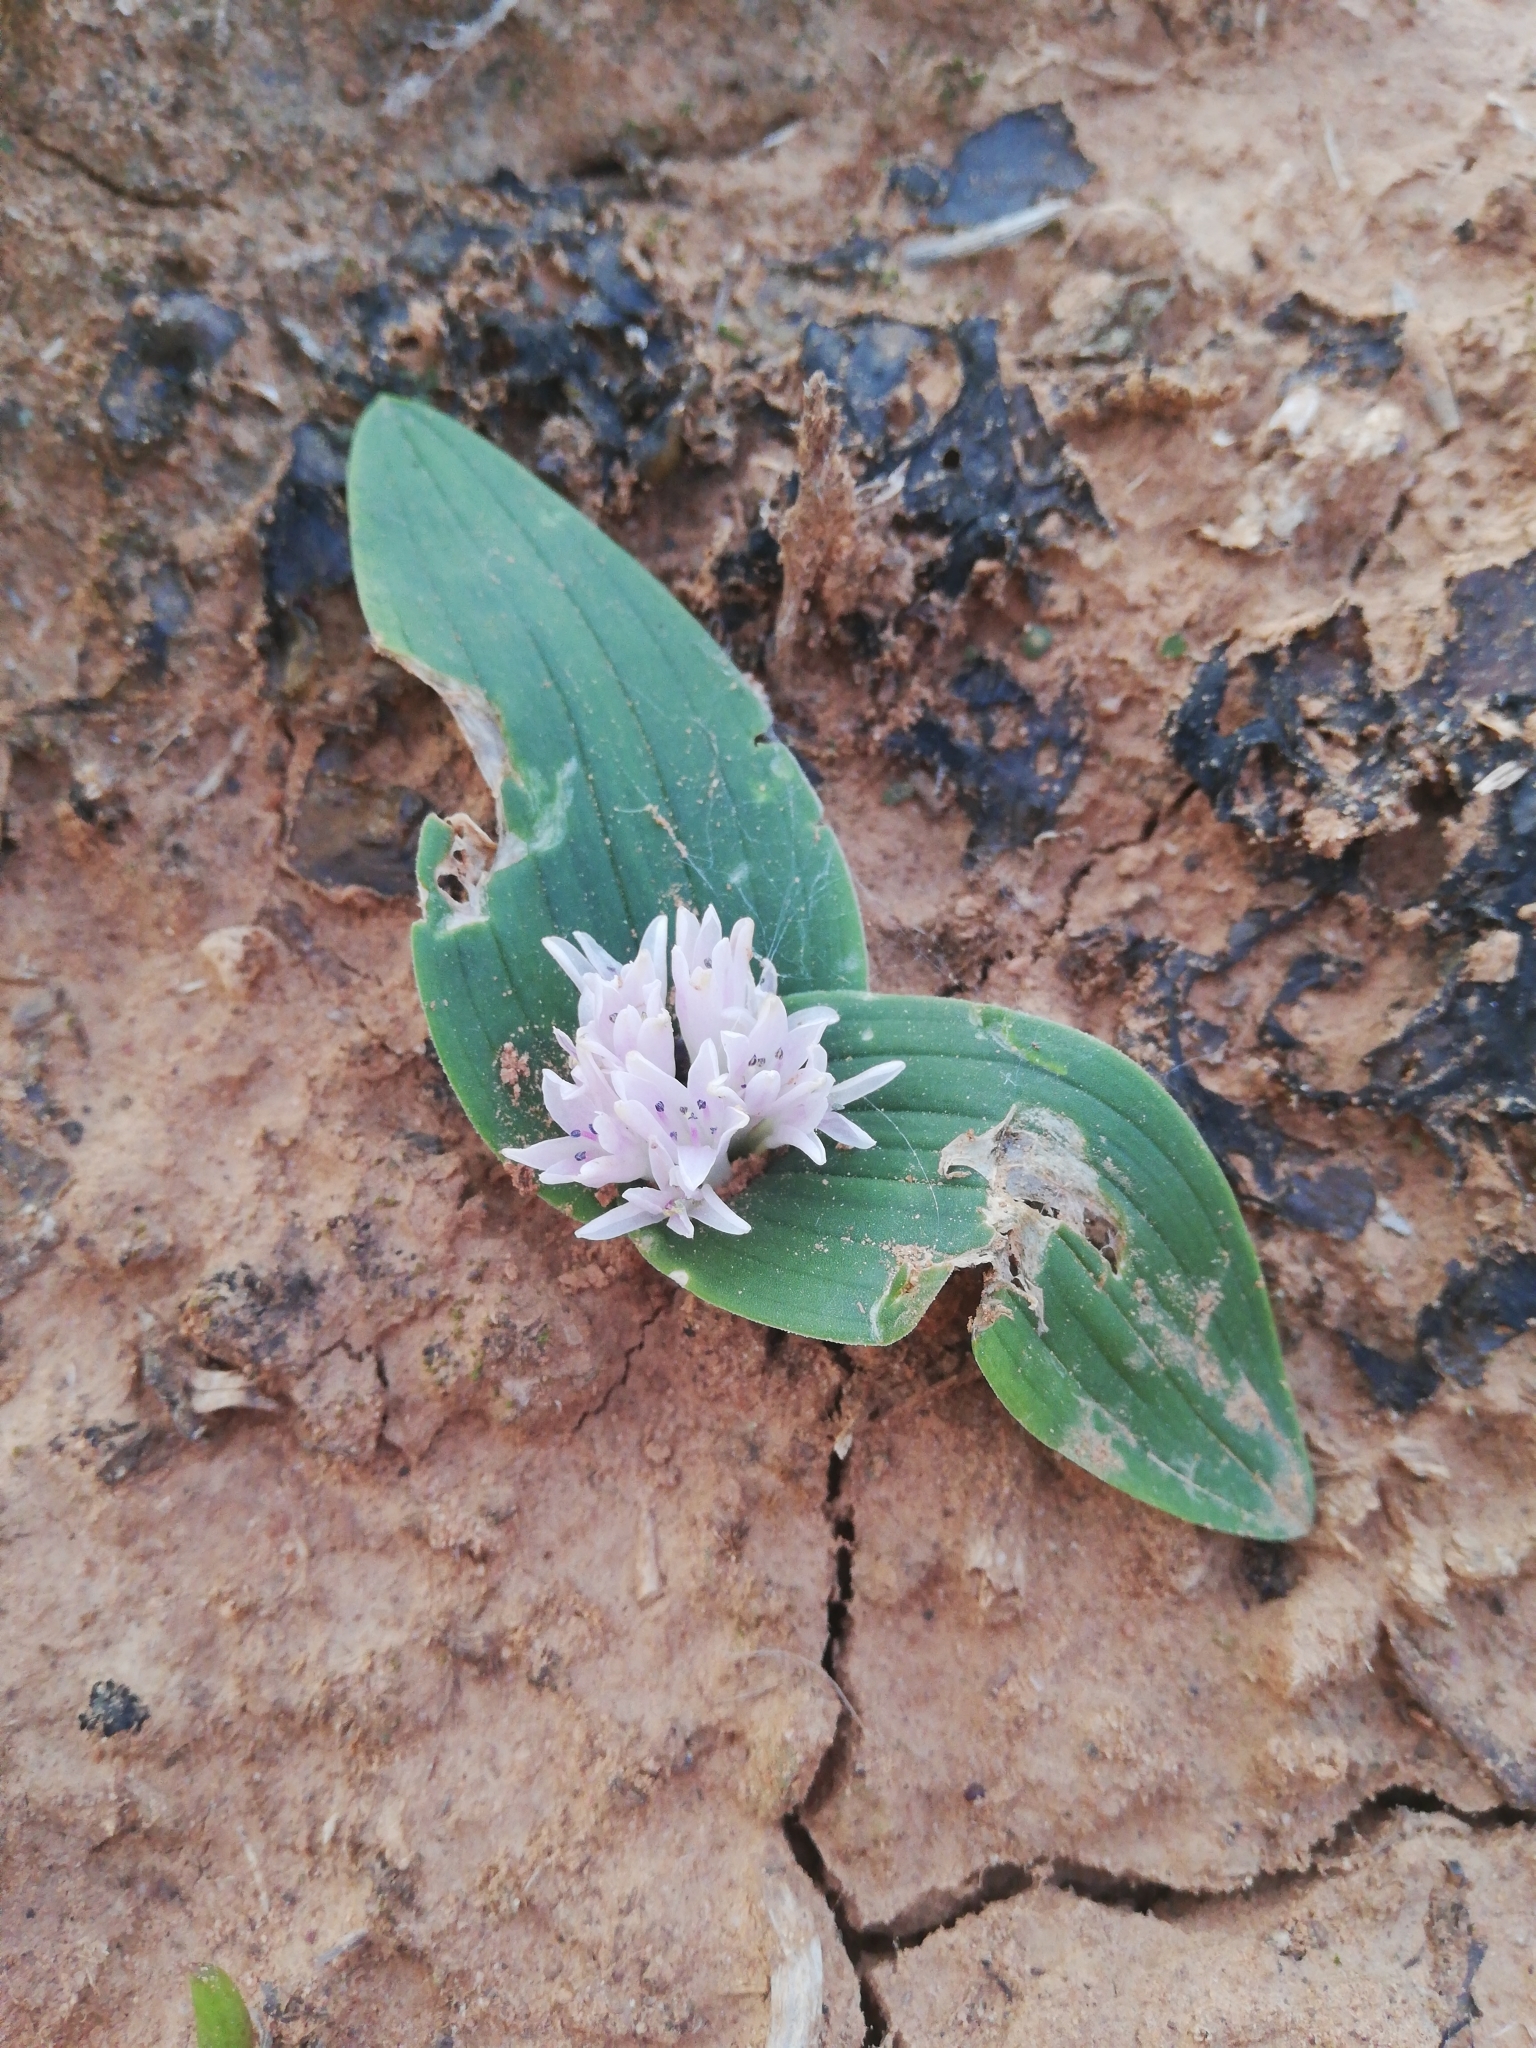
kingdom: Plantae
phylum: Tracheophyta
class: Liliopsida
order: Asparagales
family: Asparagaceae
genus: Lachenalia
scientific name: Lachenalia ensifolia
